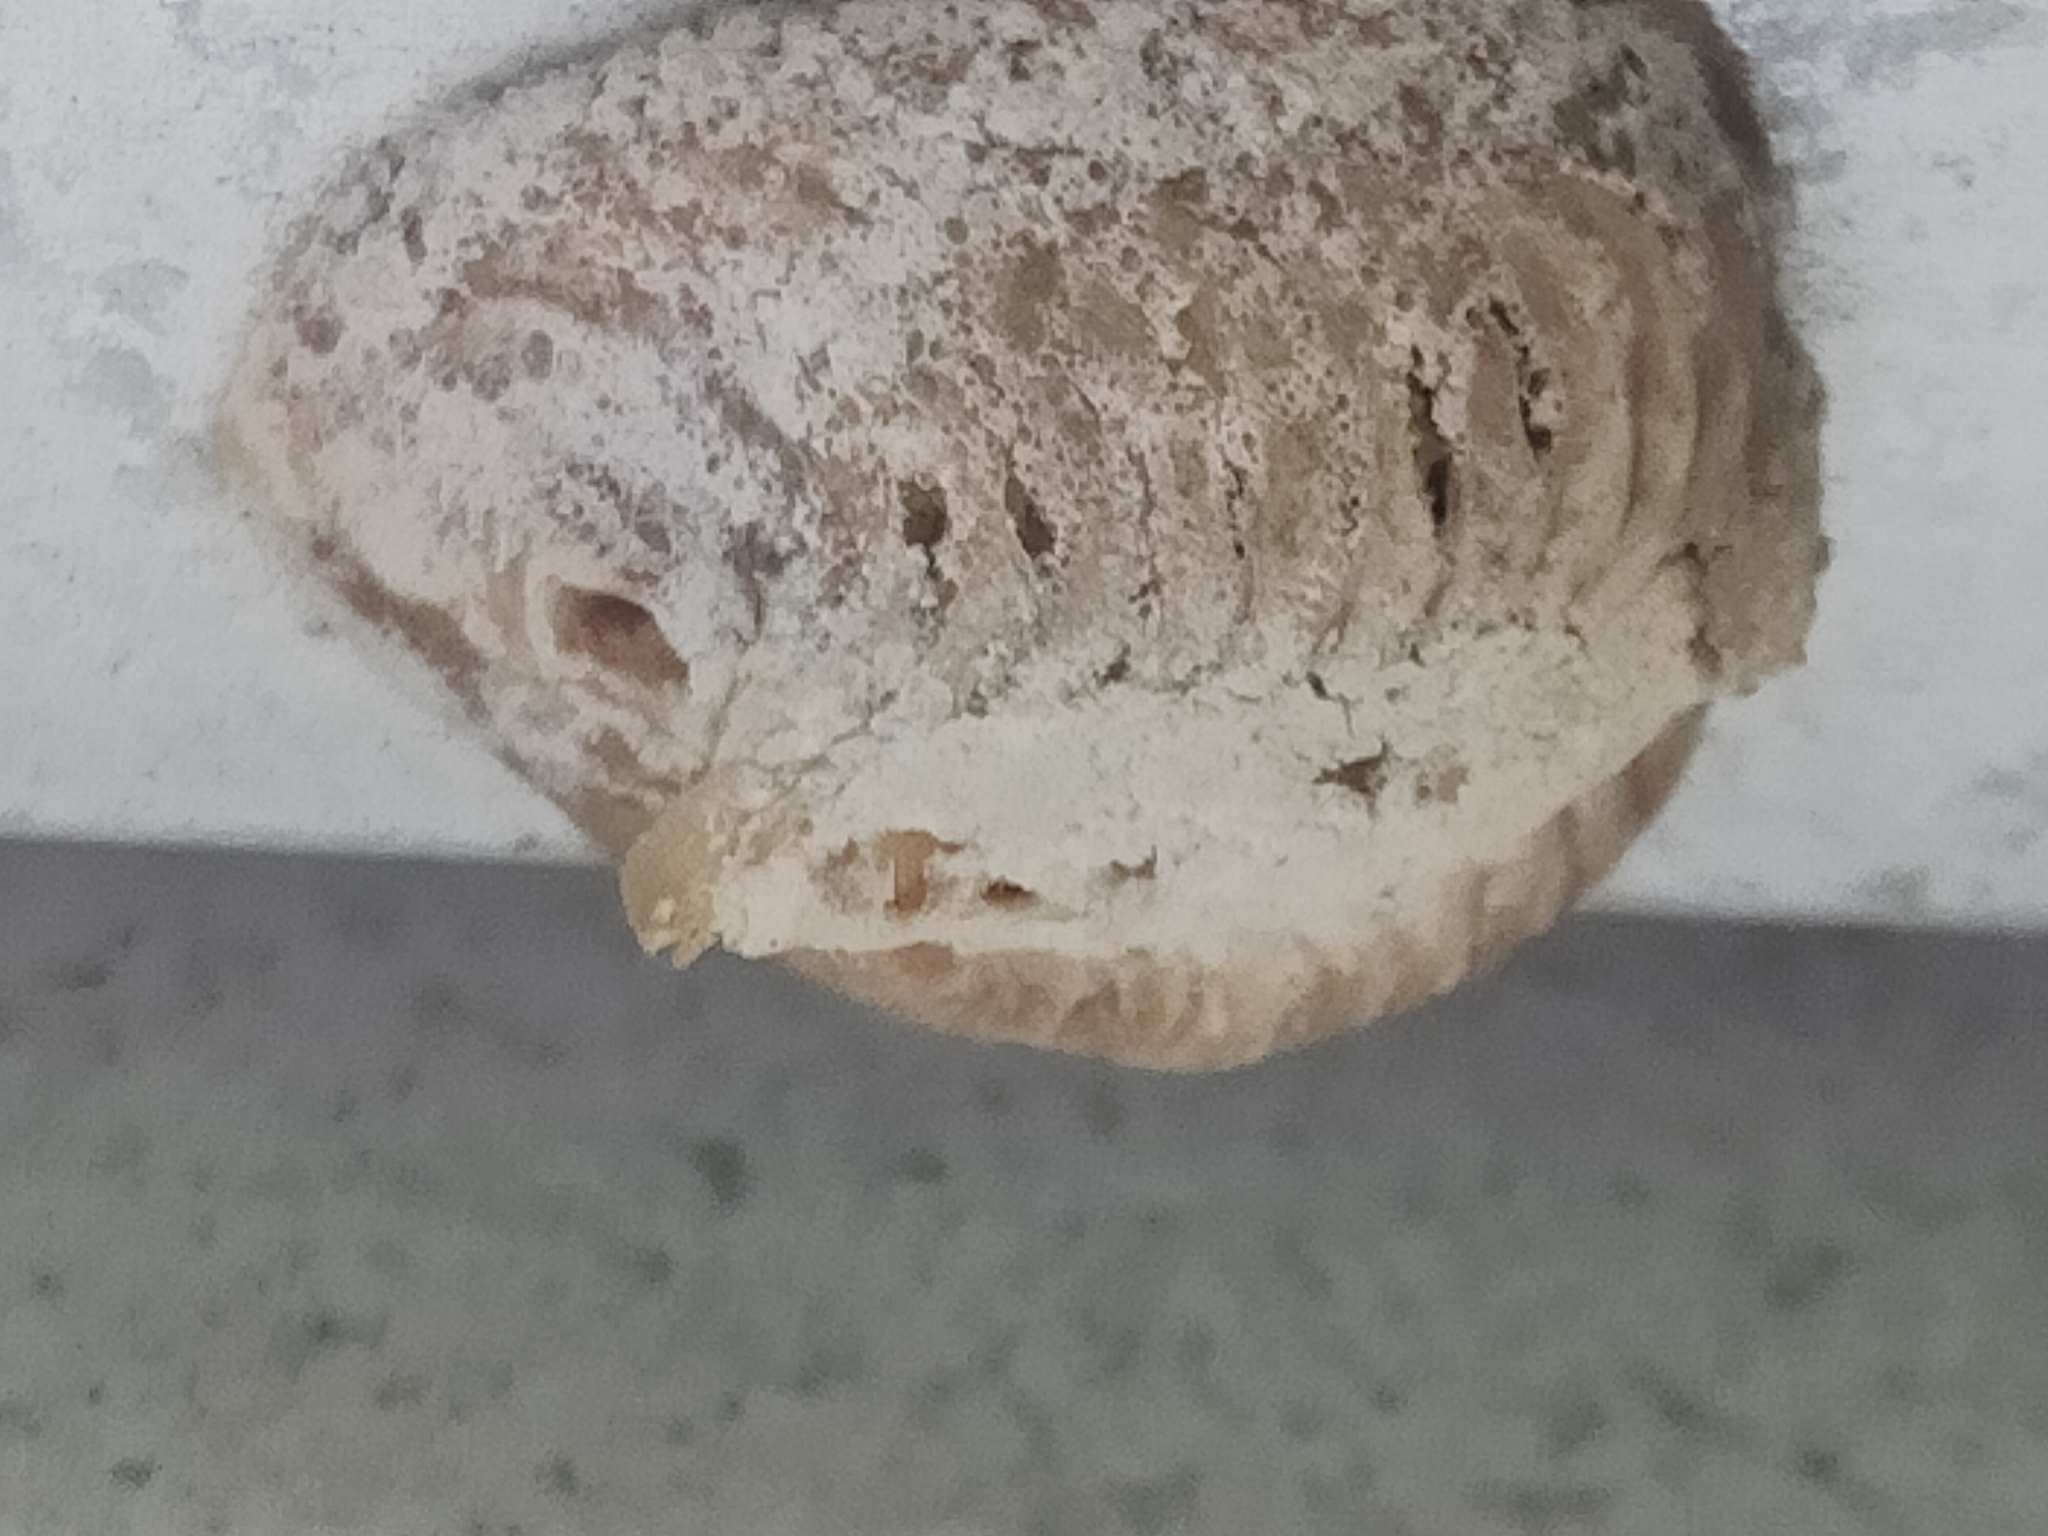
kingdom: Animalia
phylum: Arthropoda
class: Insecta
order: Mantodea
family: Mantidae
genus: Hierodula
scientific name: Hierodula transcaucasica
